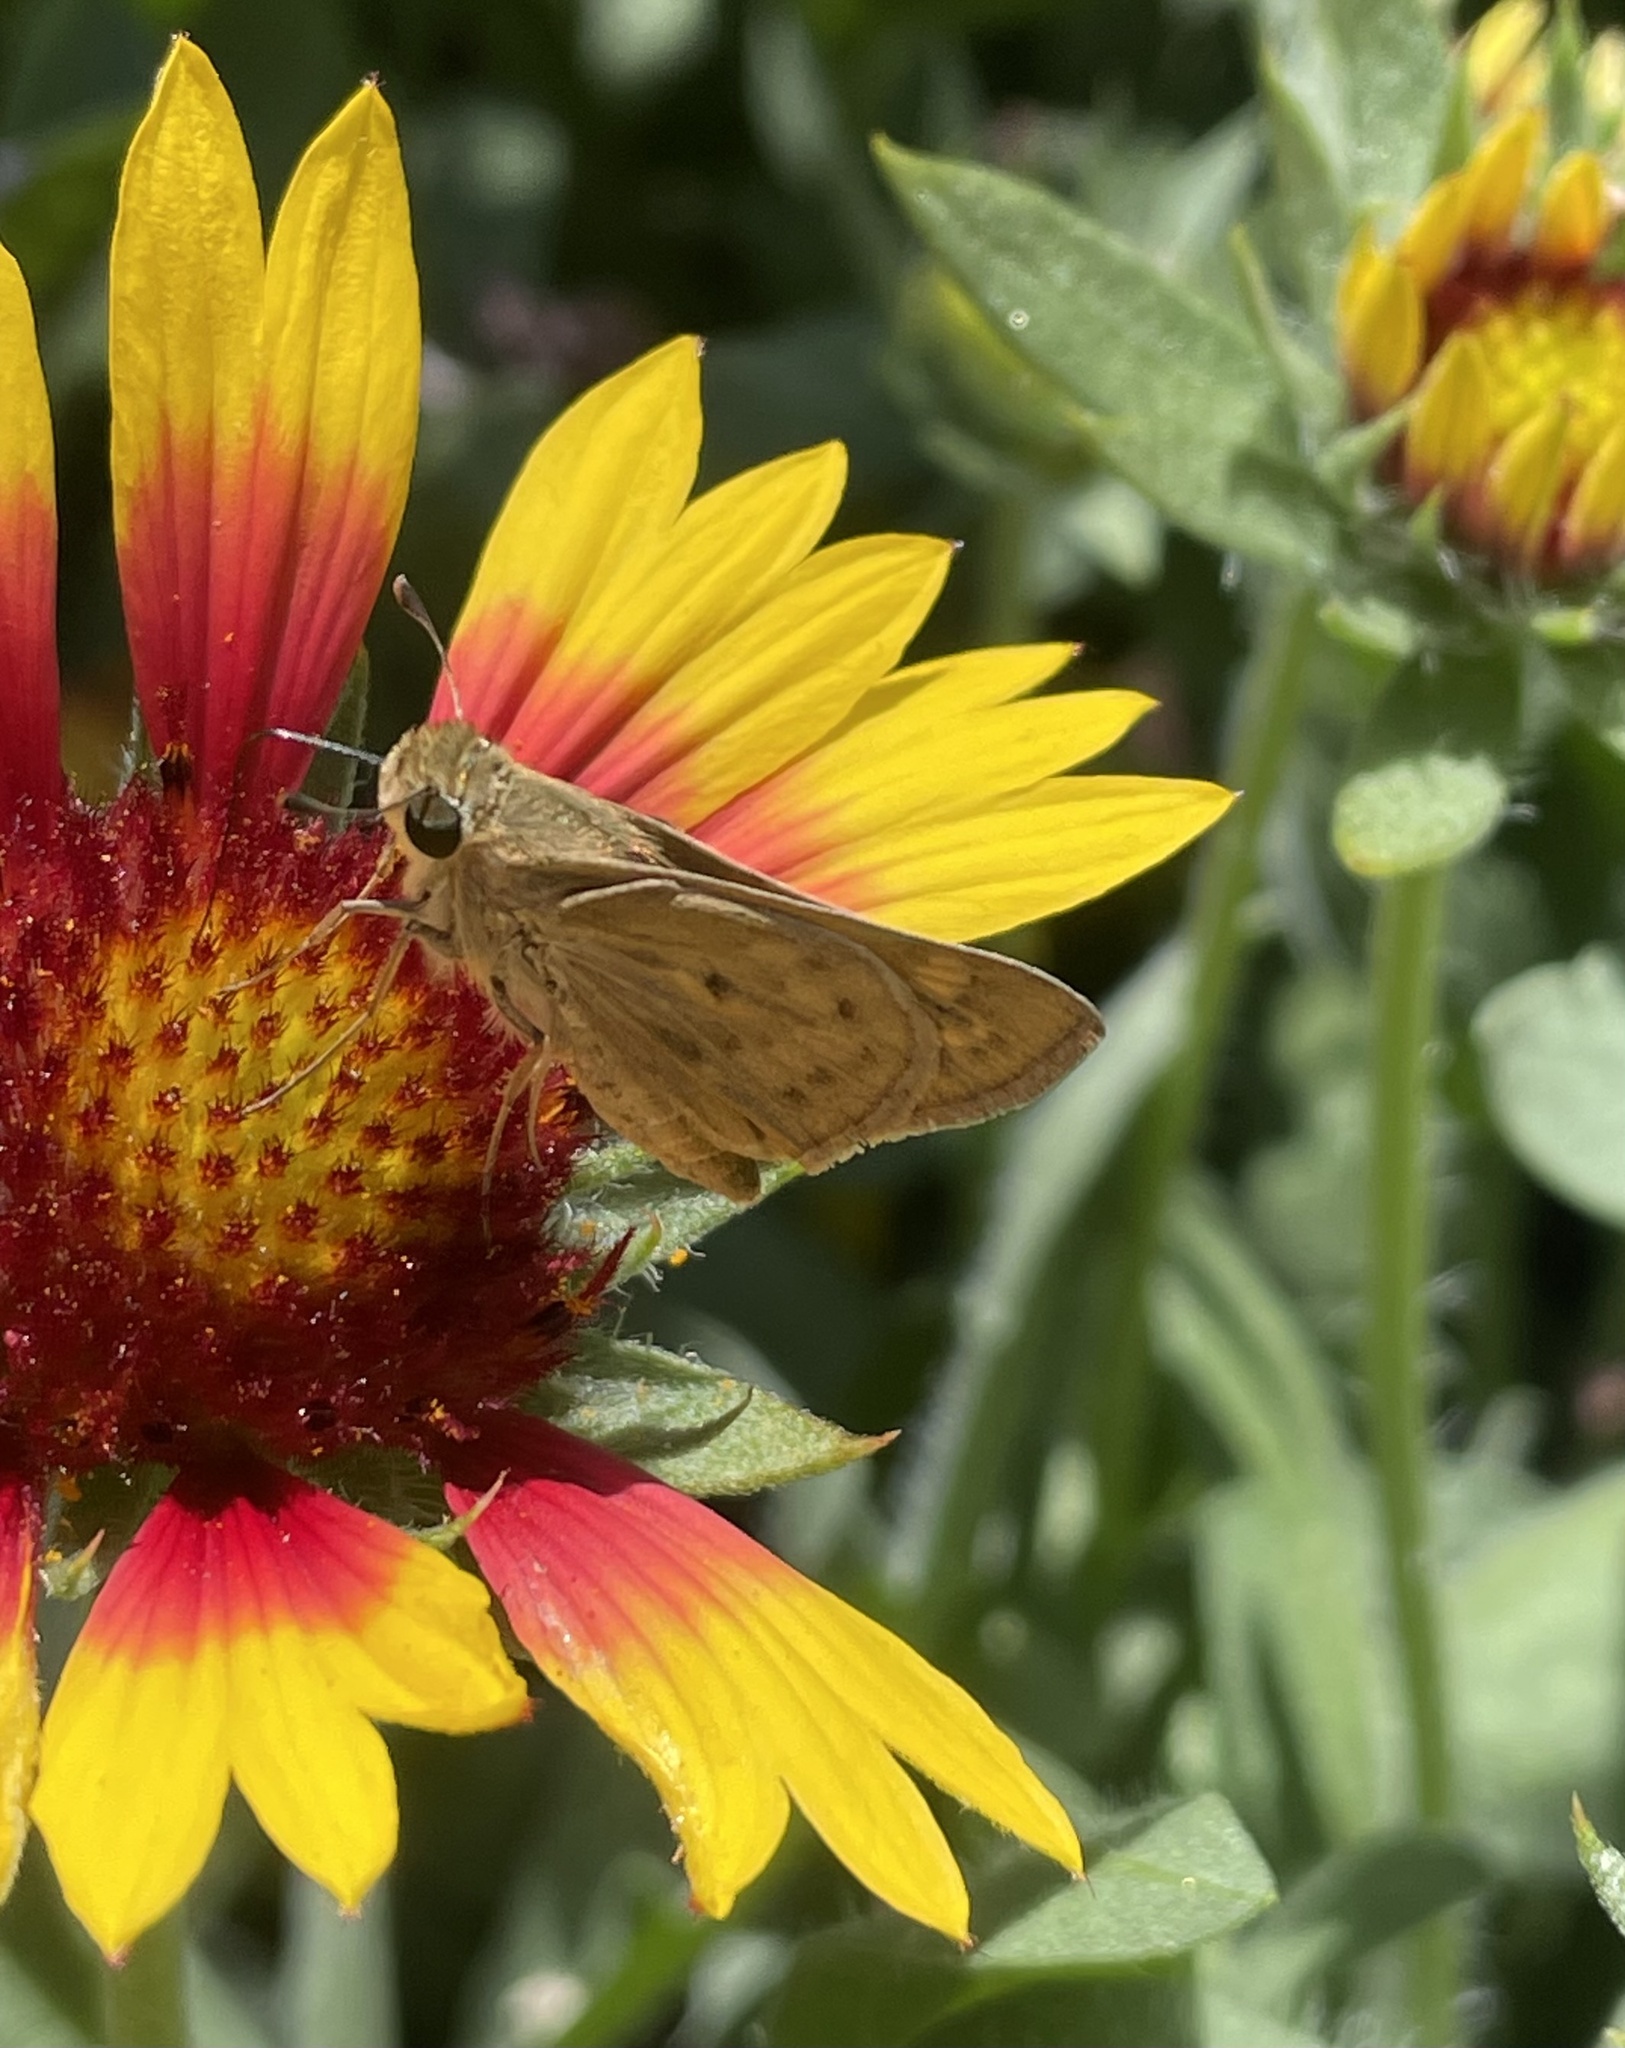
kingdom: Animalia
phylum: Arthropoda
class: Insecta
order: Lepidoptera
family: Hesperiidae
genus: Hylephila
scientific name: Hylephila phyleus
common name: Fiery skipper
